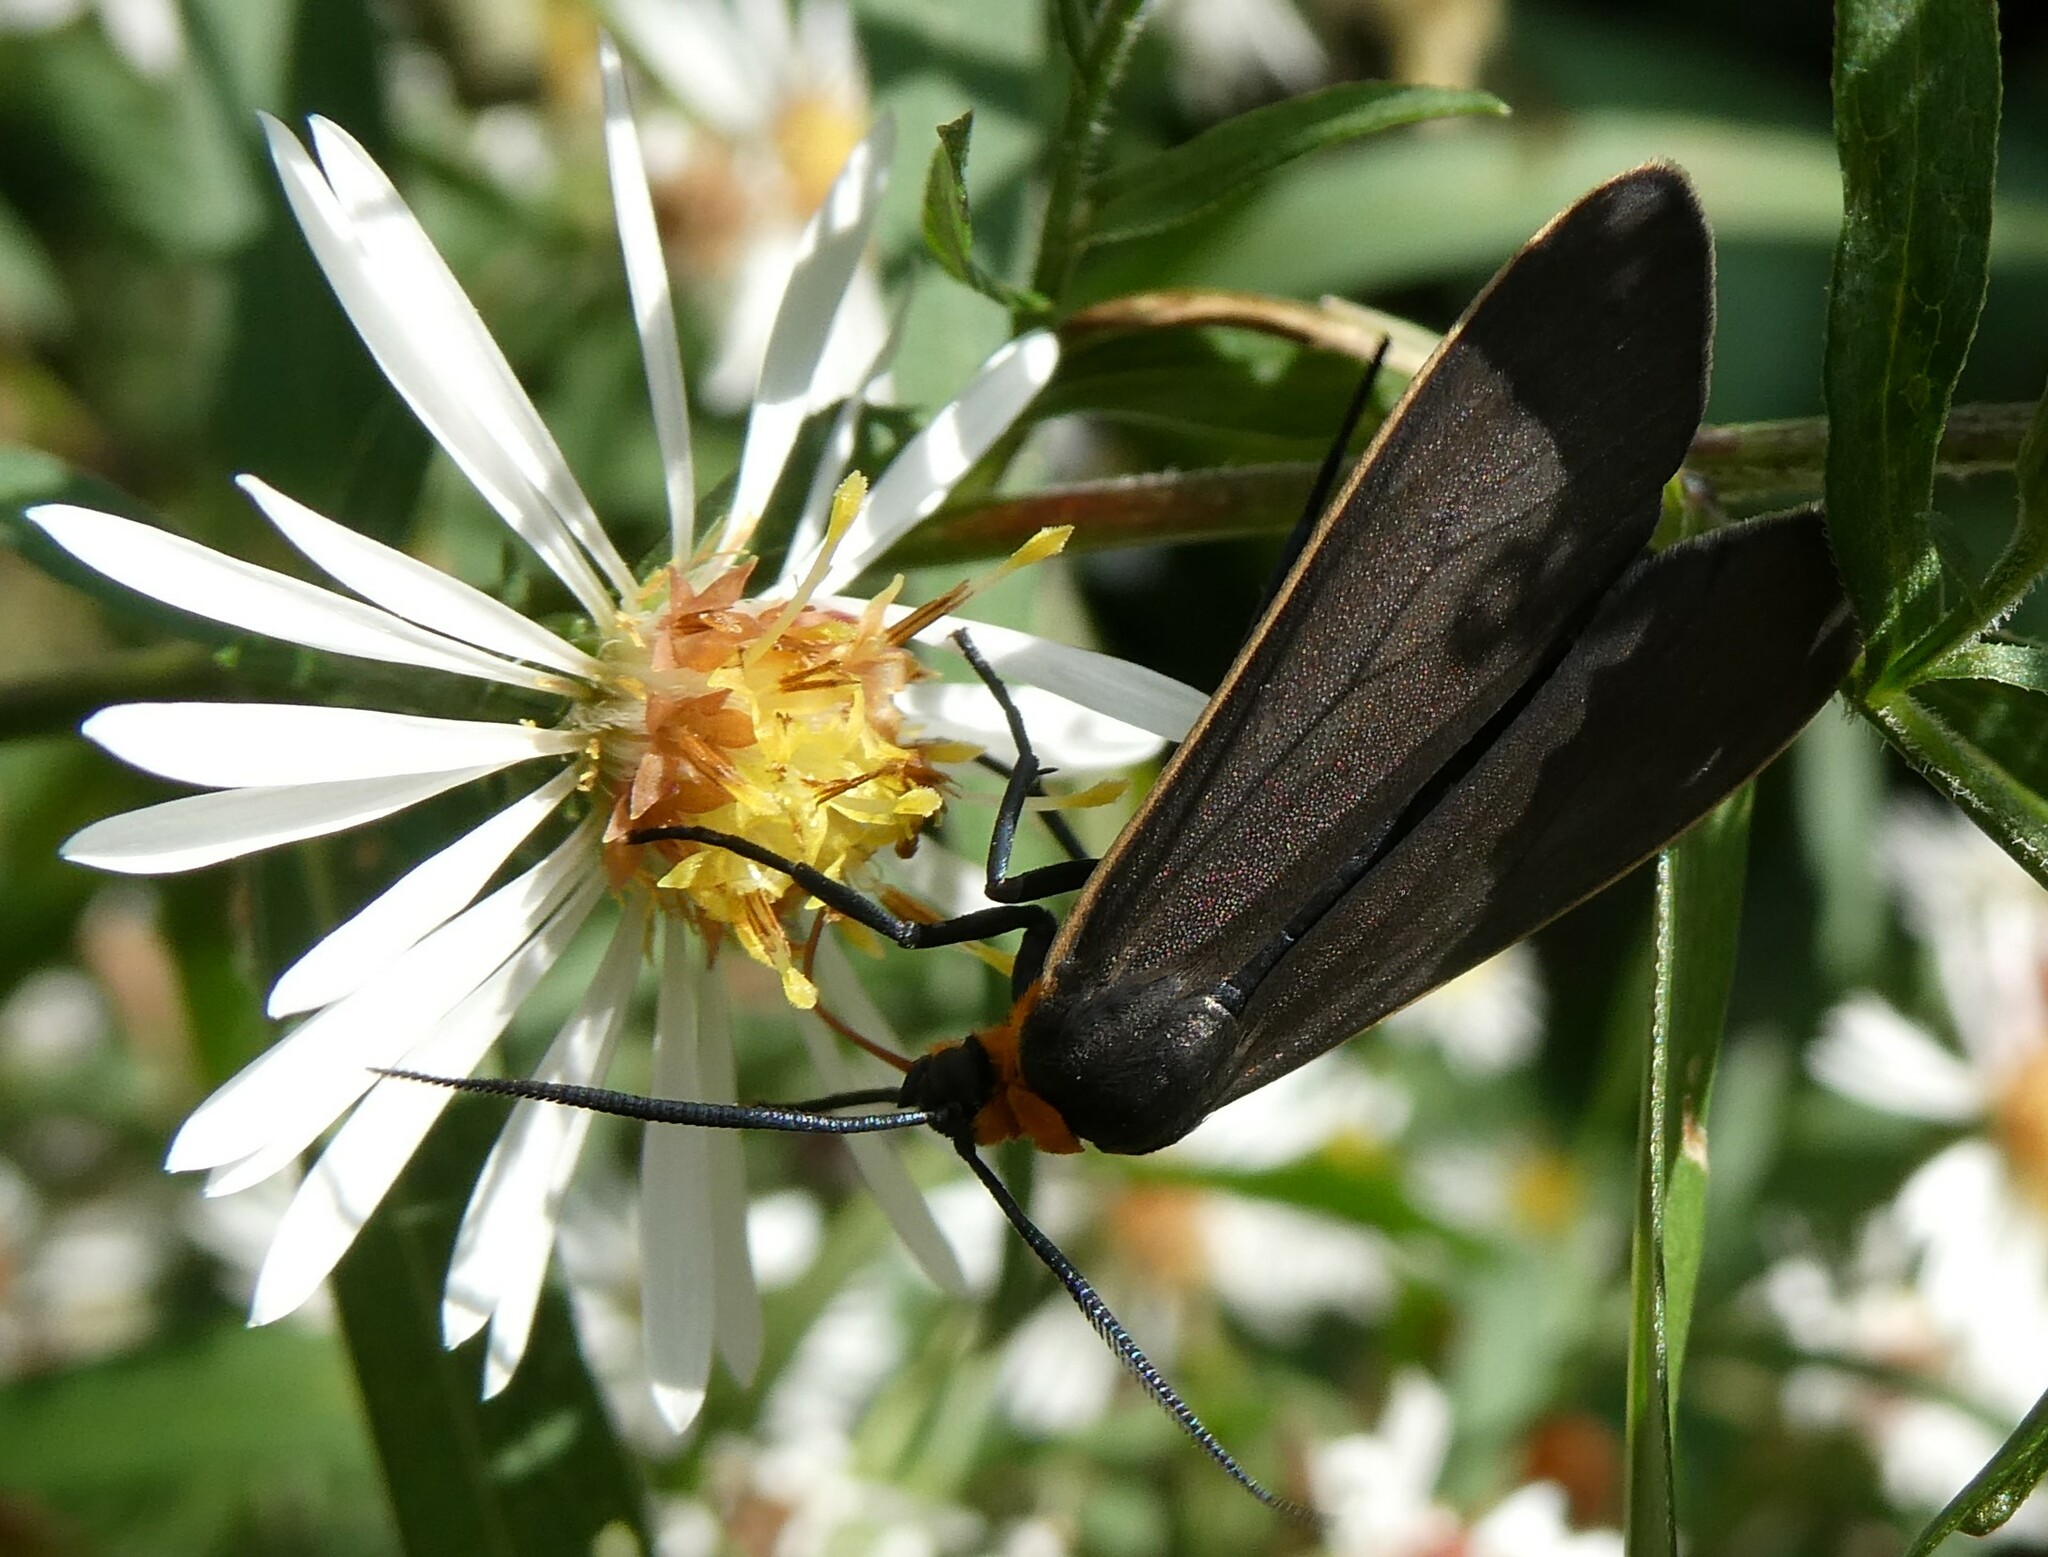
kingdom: Animalia
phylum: Arthropoda
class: Insecta
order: Lepidoptera
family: Erebidae
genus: Cisseps
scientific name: Cisseps fulvicollis
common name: Yellow-collared scape moth
